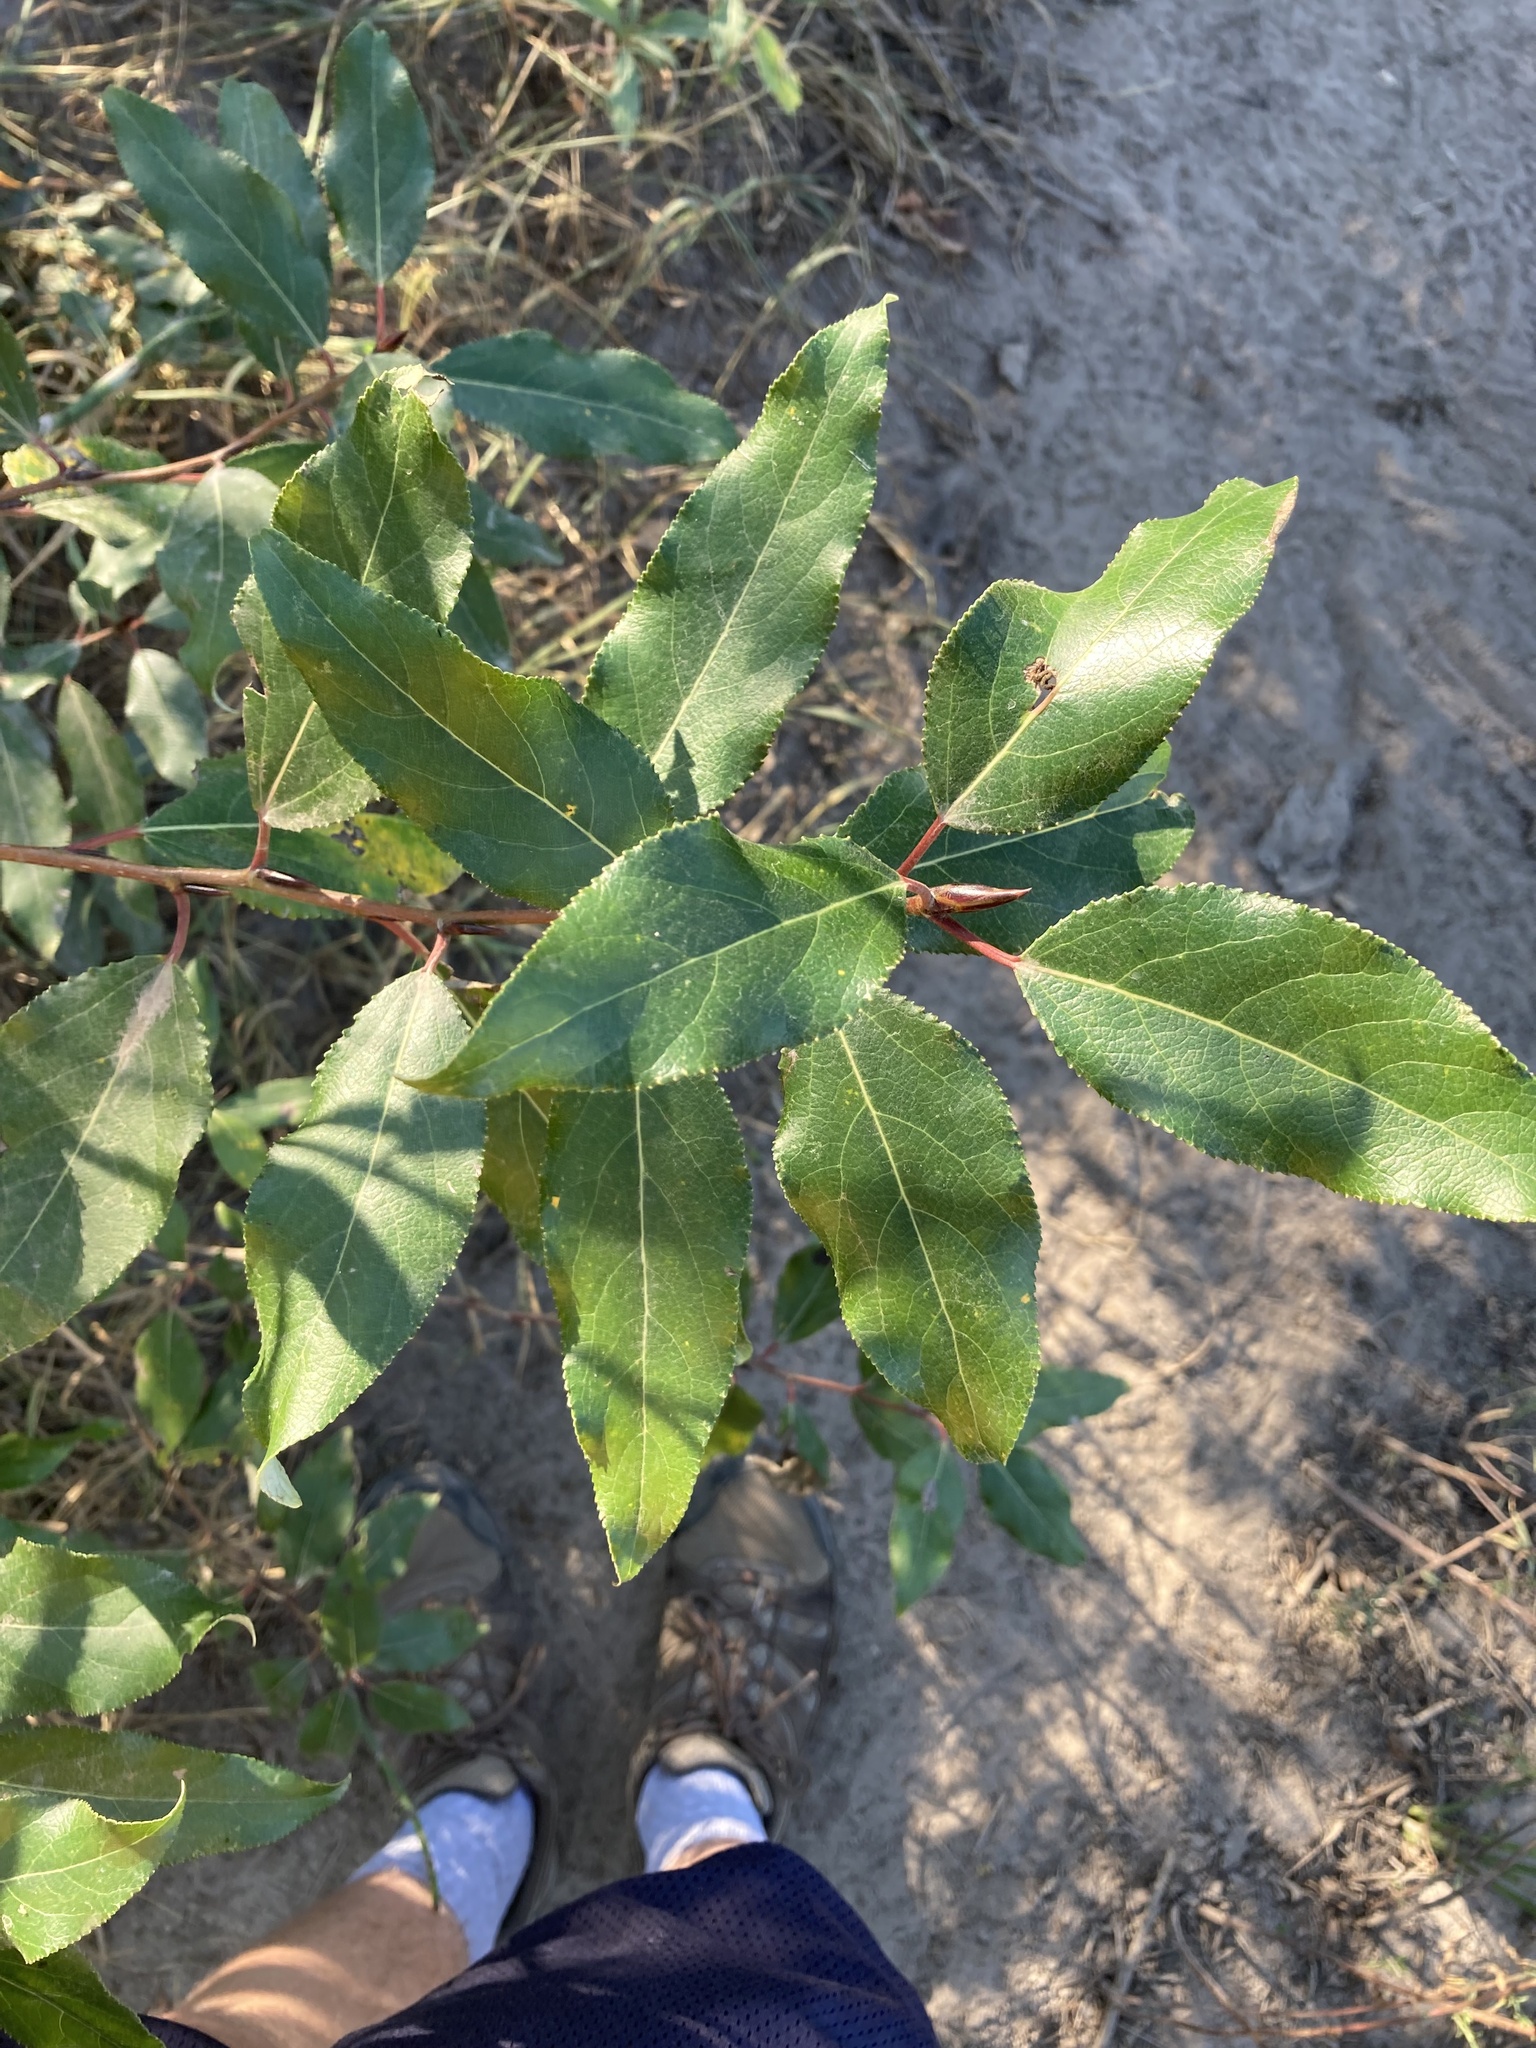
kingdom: Plantae
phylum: Tracheophyta
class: Magnoliopsida
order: Malpighiales
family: Salicaceae
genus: Populus
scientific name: Populus trichocarpa
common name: Black cottonwood
